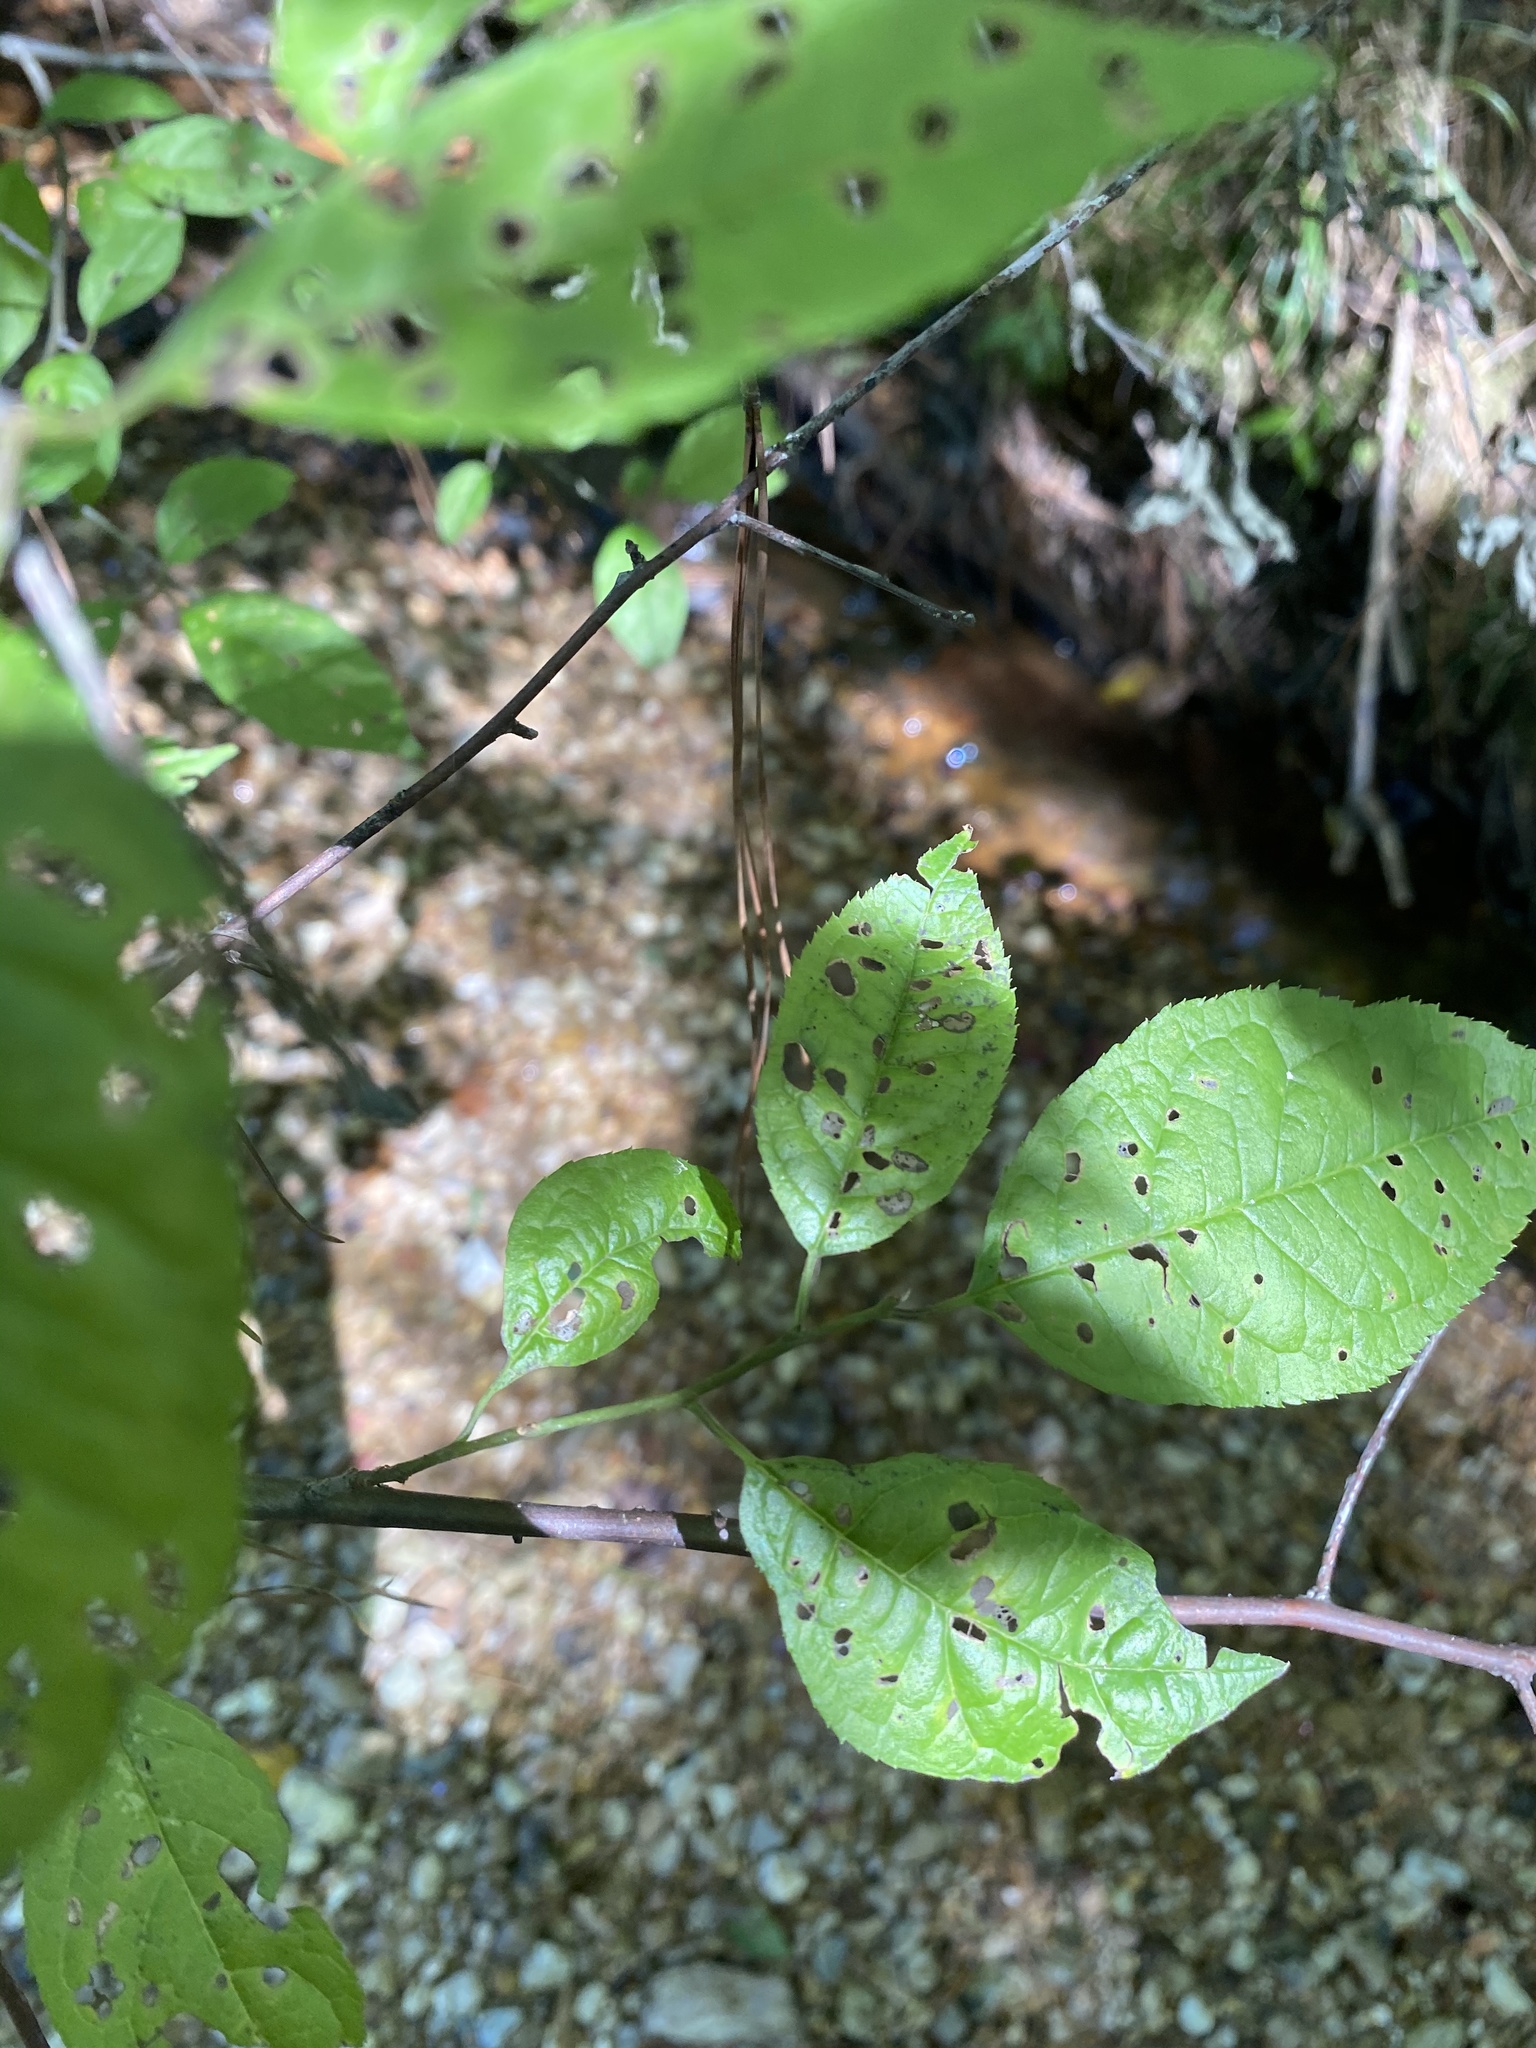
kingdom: Plantae
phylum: Tracheophyta
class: Magnoliopsida
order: Aquifoliales
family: Aquifoliaceae
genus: Ilex
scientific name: Ilex verticillata
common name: Virginia winterberry
